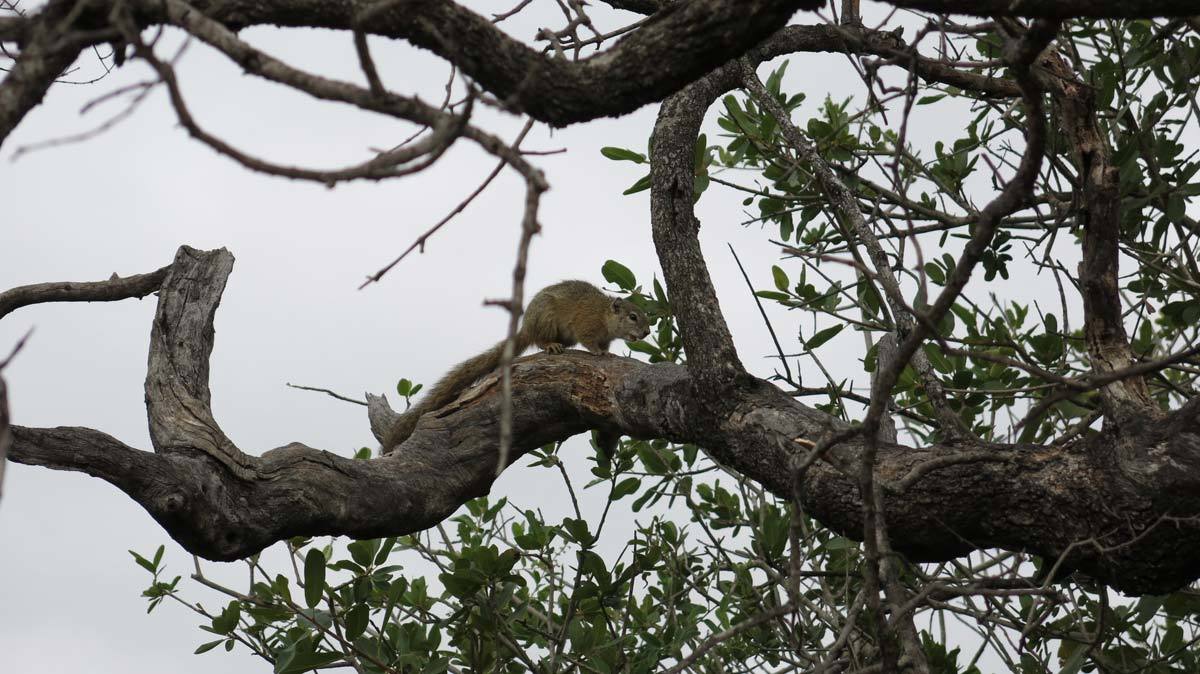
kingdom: Animalia
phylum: Chordata
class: Mammalia
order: Rodentia
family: Sciuridae
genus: Paraxerus
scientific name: Paraxerus cepapi
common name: Smith's bush squirrel
